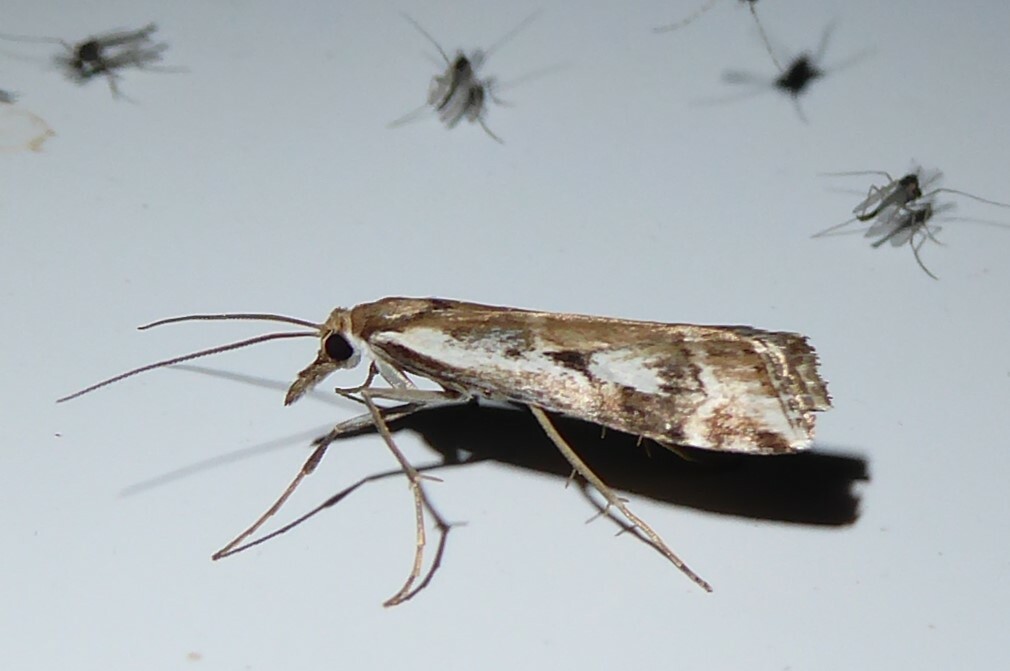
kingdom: Animalia
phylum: Arthropoda
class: Insecta
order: Lepidoptera
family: Crambidae
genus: Orocrambus
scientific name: Orocrambus vulgaris
